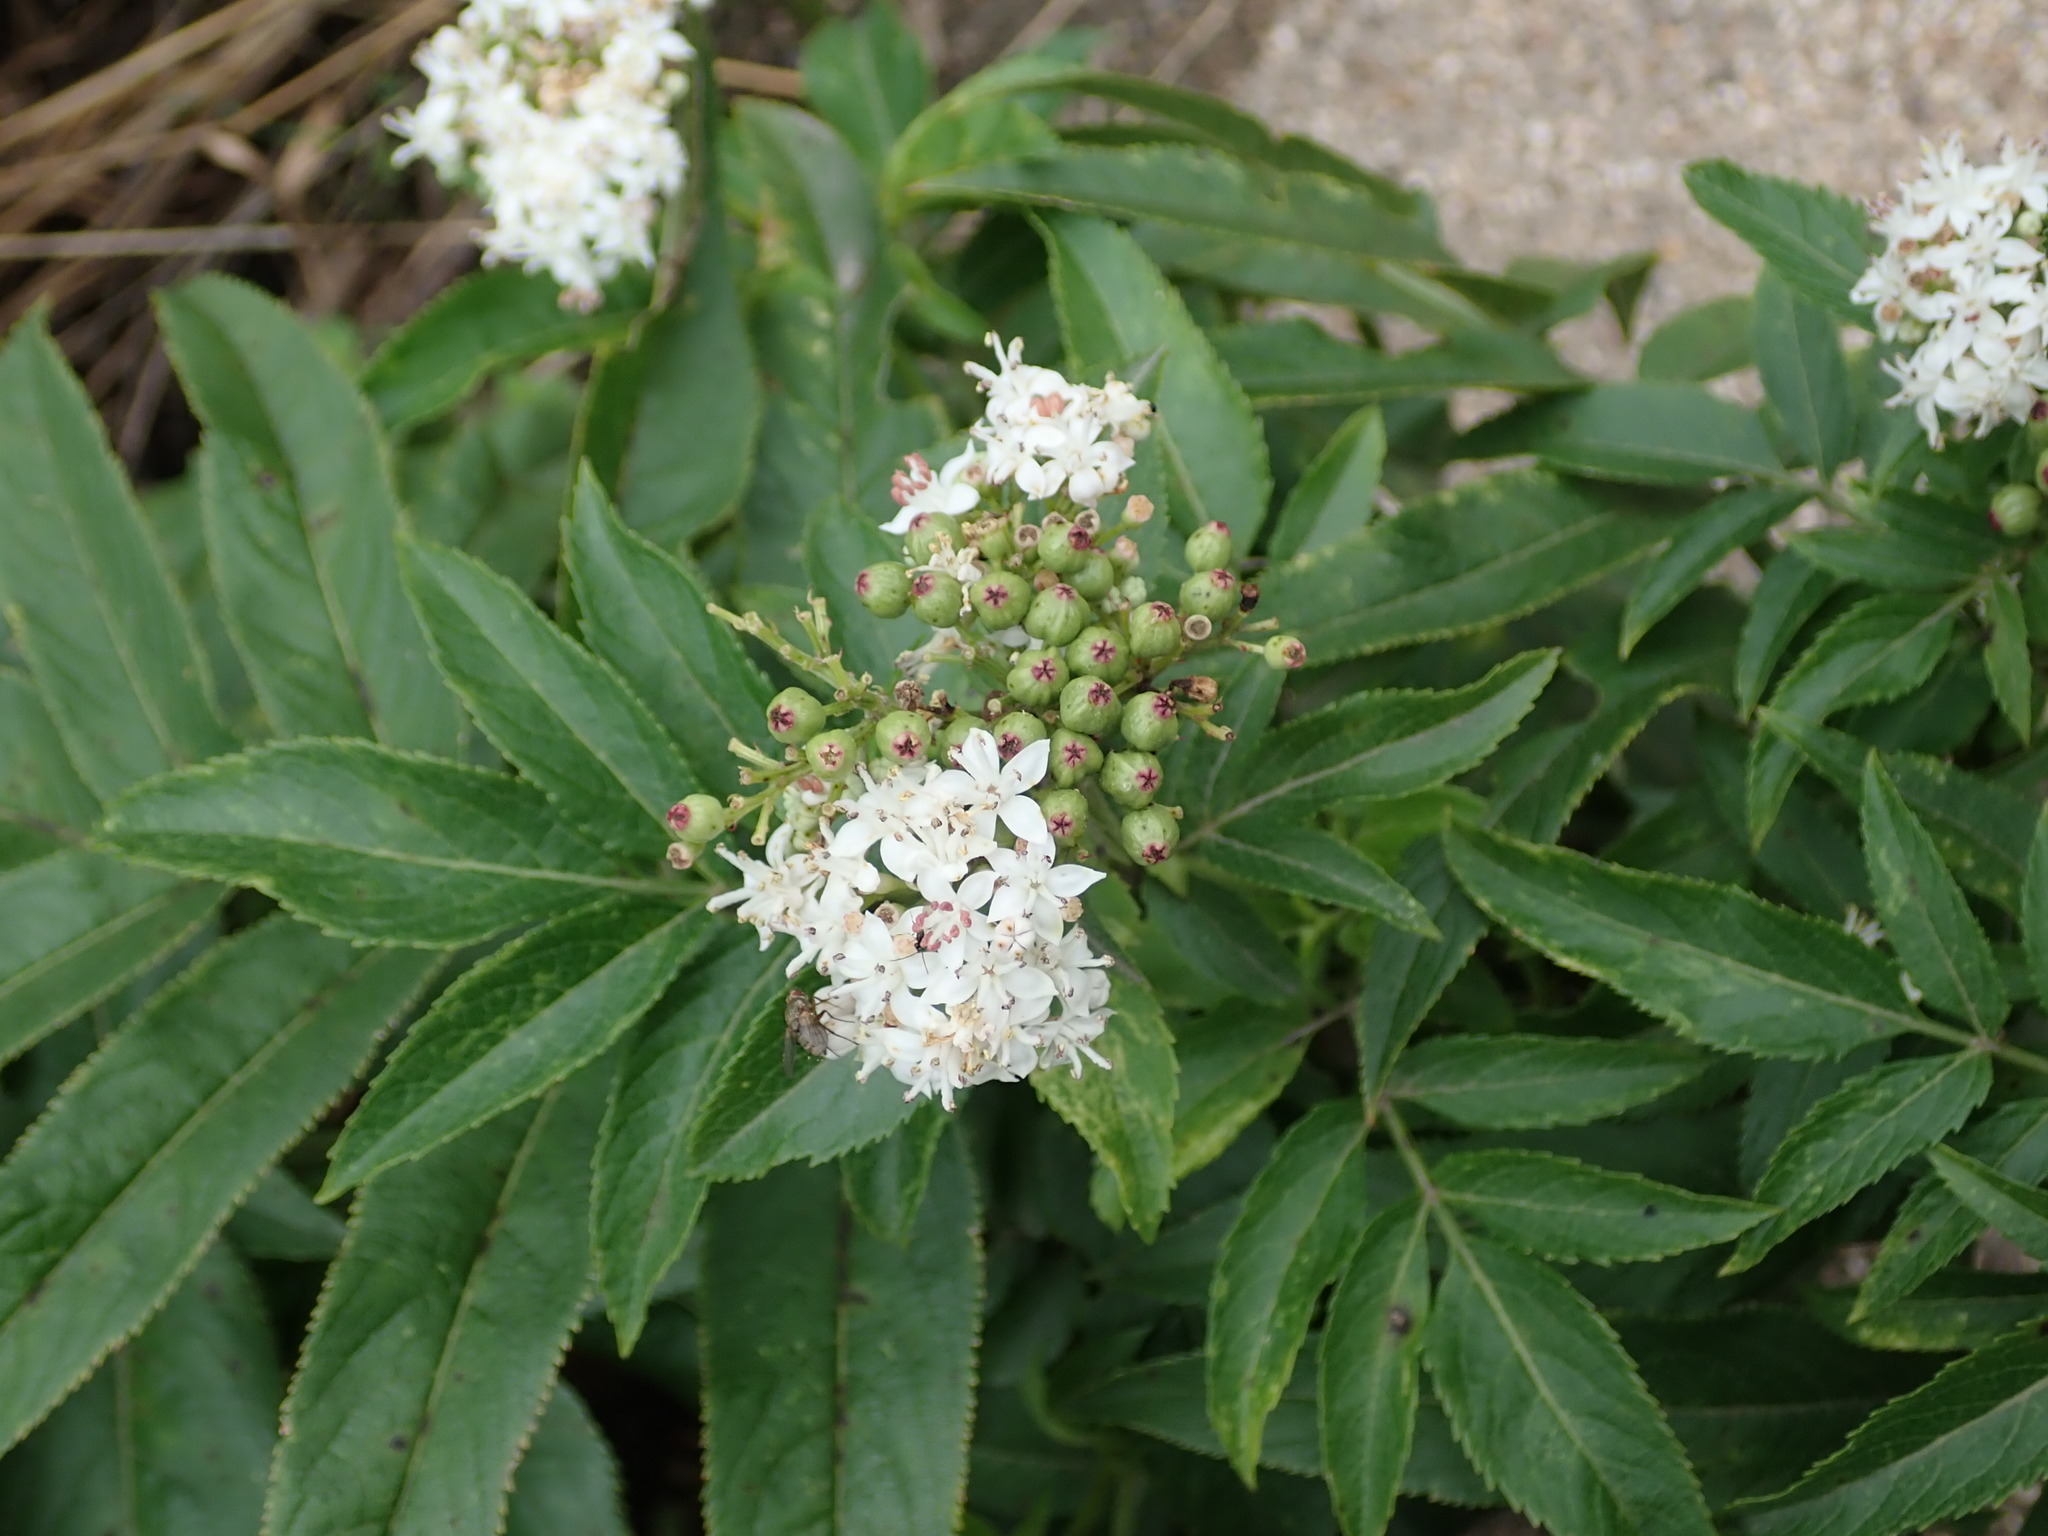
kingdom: Plantae
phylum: Tracheophyta
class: Magnoliopsida
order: Dipsacales
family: Viburnaceae
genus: Sambucus
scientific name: Sambucus ebulus
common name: Dwarf elder
